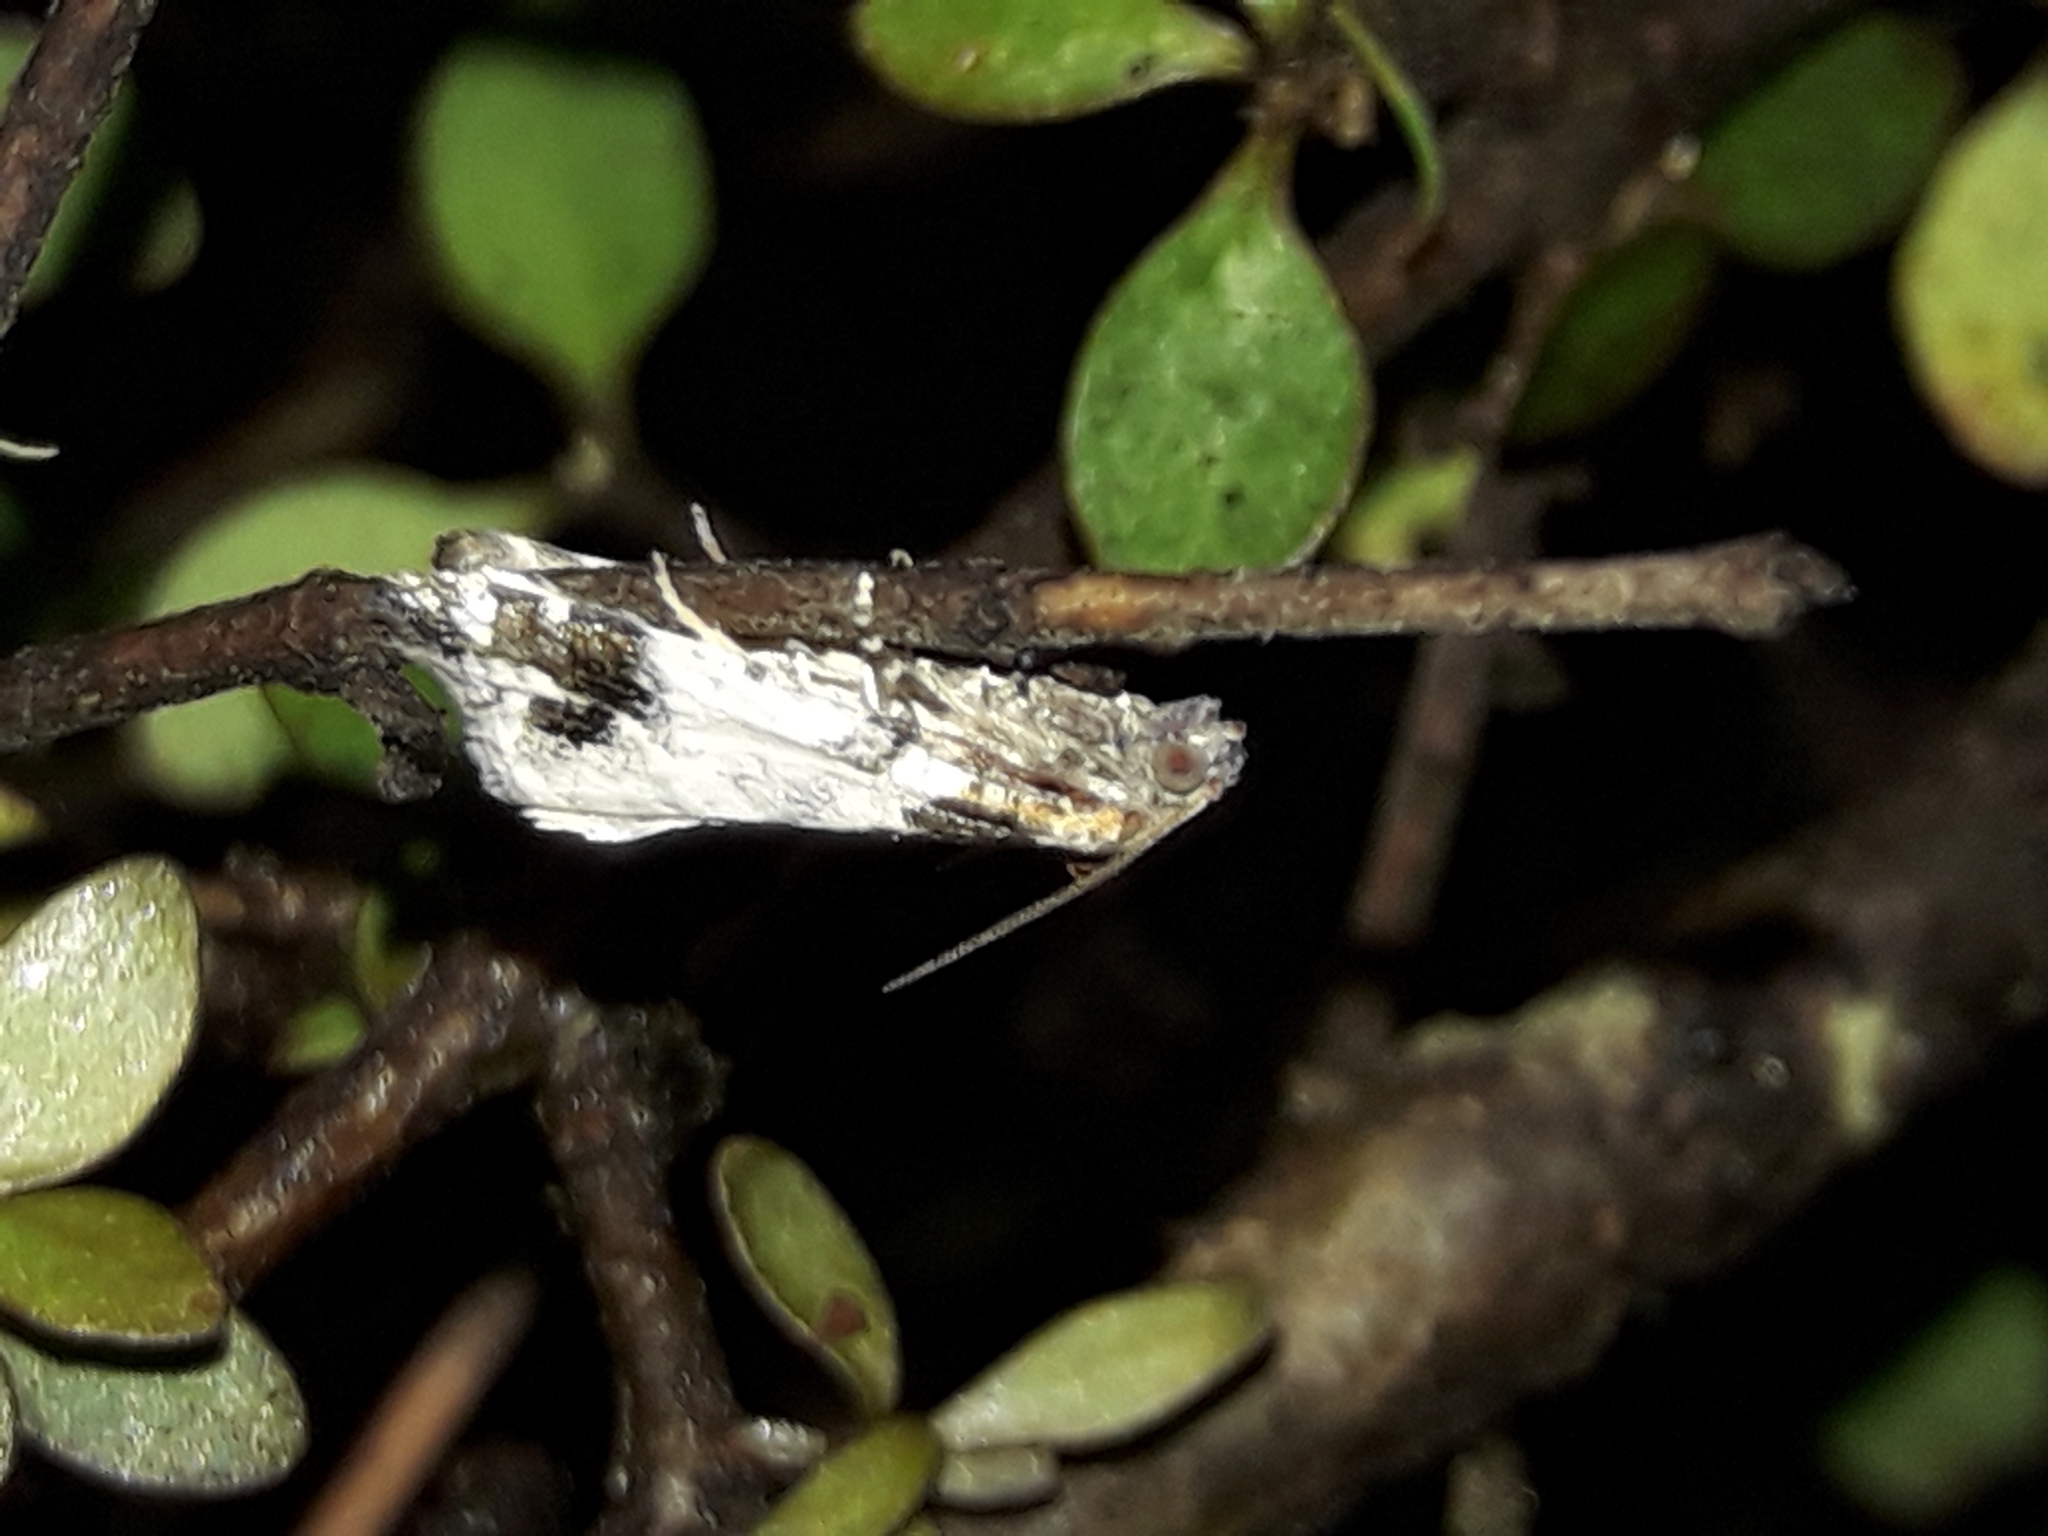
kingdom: Animalia
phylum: Arthropoda
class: Insecta
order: Lepidoptera
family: Tortricidae
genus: Pyrgotis
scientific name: Pyrgotis calligypsa
